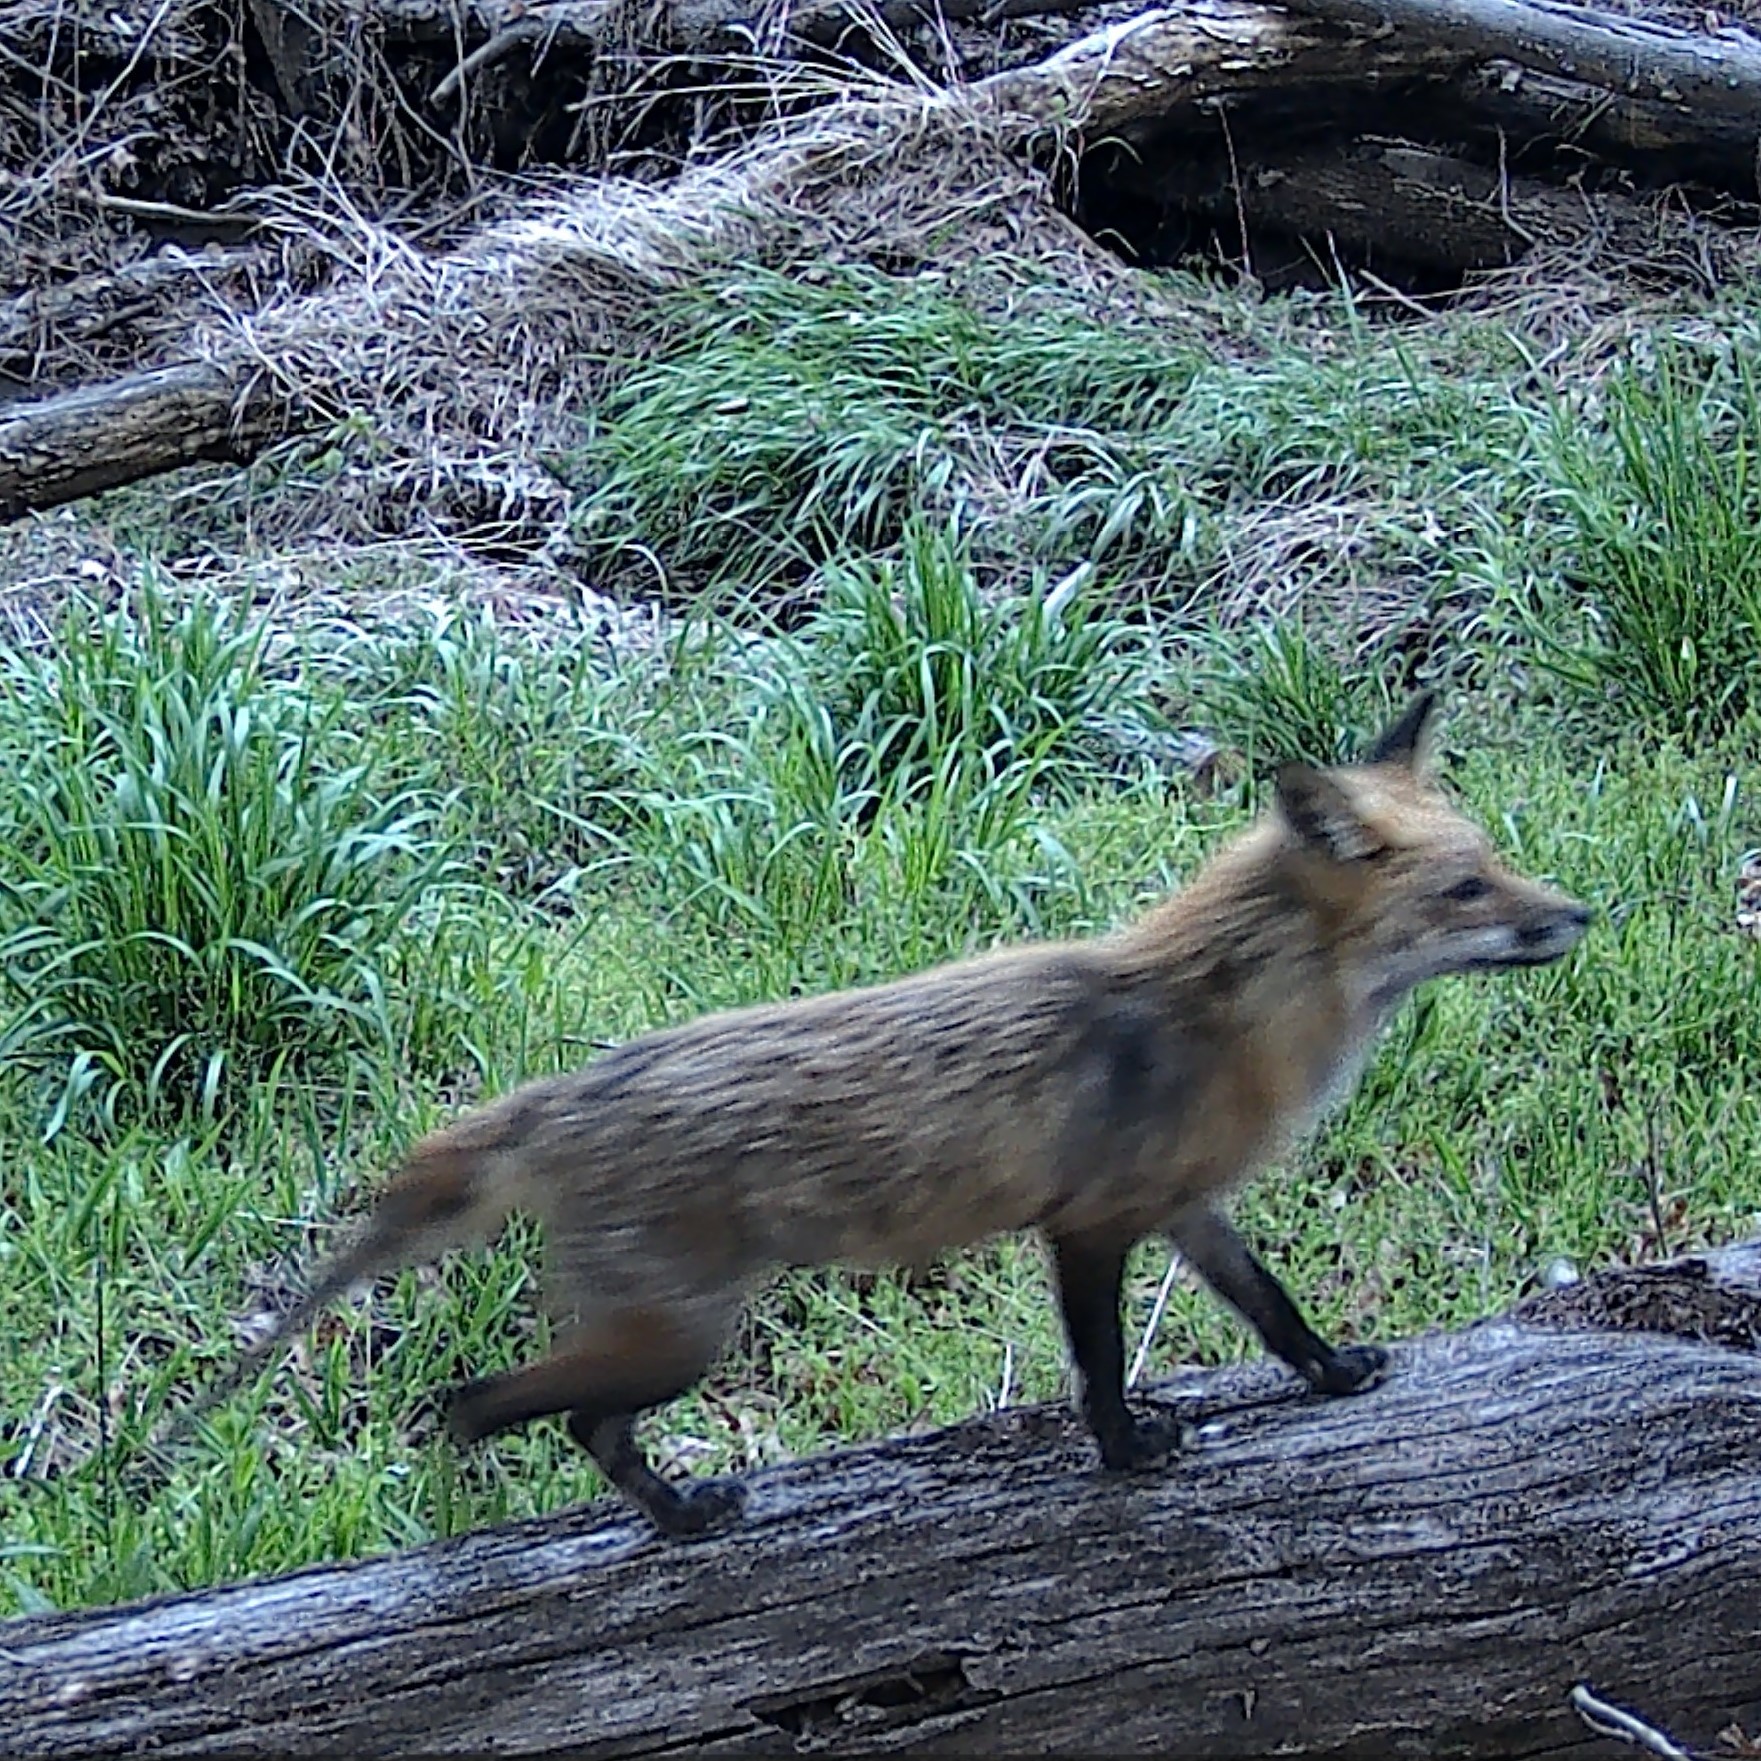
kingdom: Animalia
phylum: Chordata
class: Mammalia
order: Carnivora
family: Canidae
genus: Vulpes
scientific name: Vulpes vulpes
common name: Red fox
